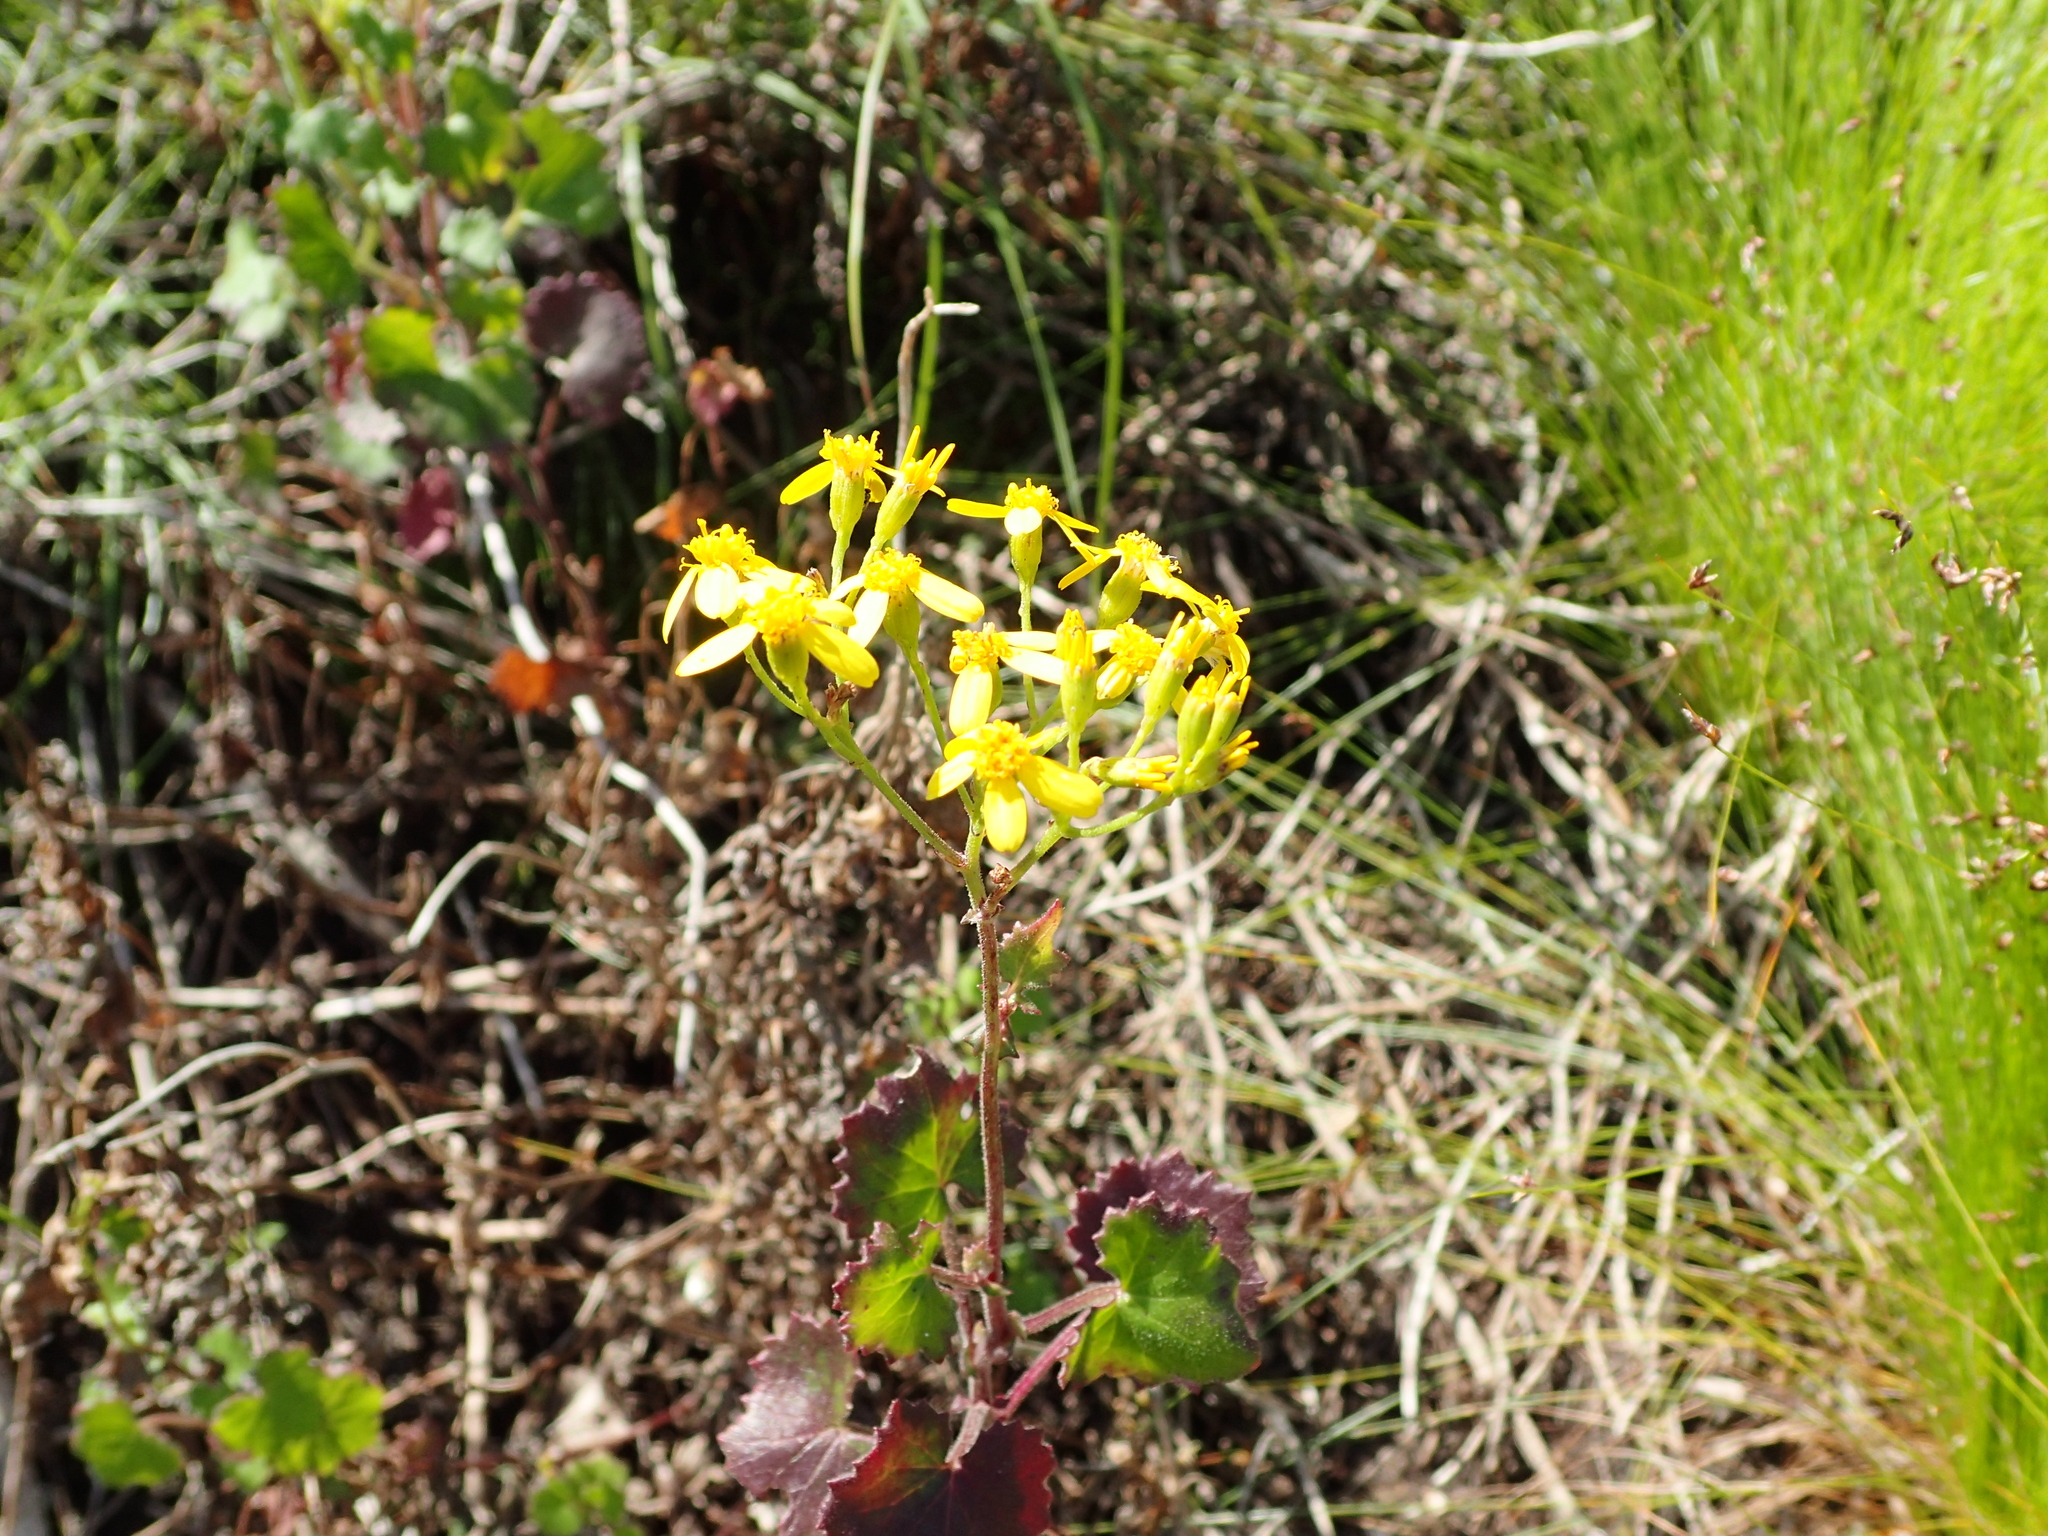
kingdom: Plantae
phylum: Tracheophyta
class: Magnoliopsida
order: Asterales
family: Asteraceae
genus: Cineraria
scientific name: Cineraria geifolia
